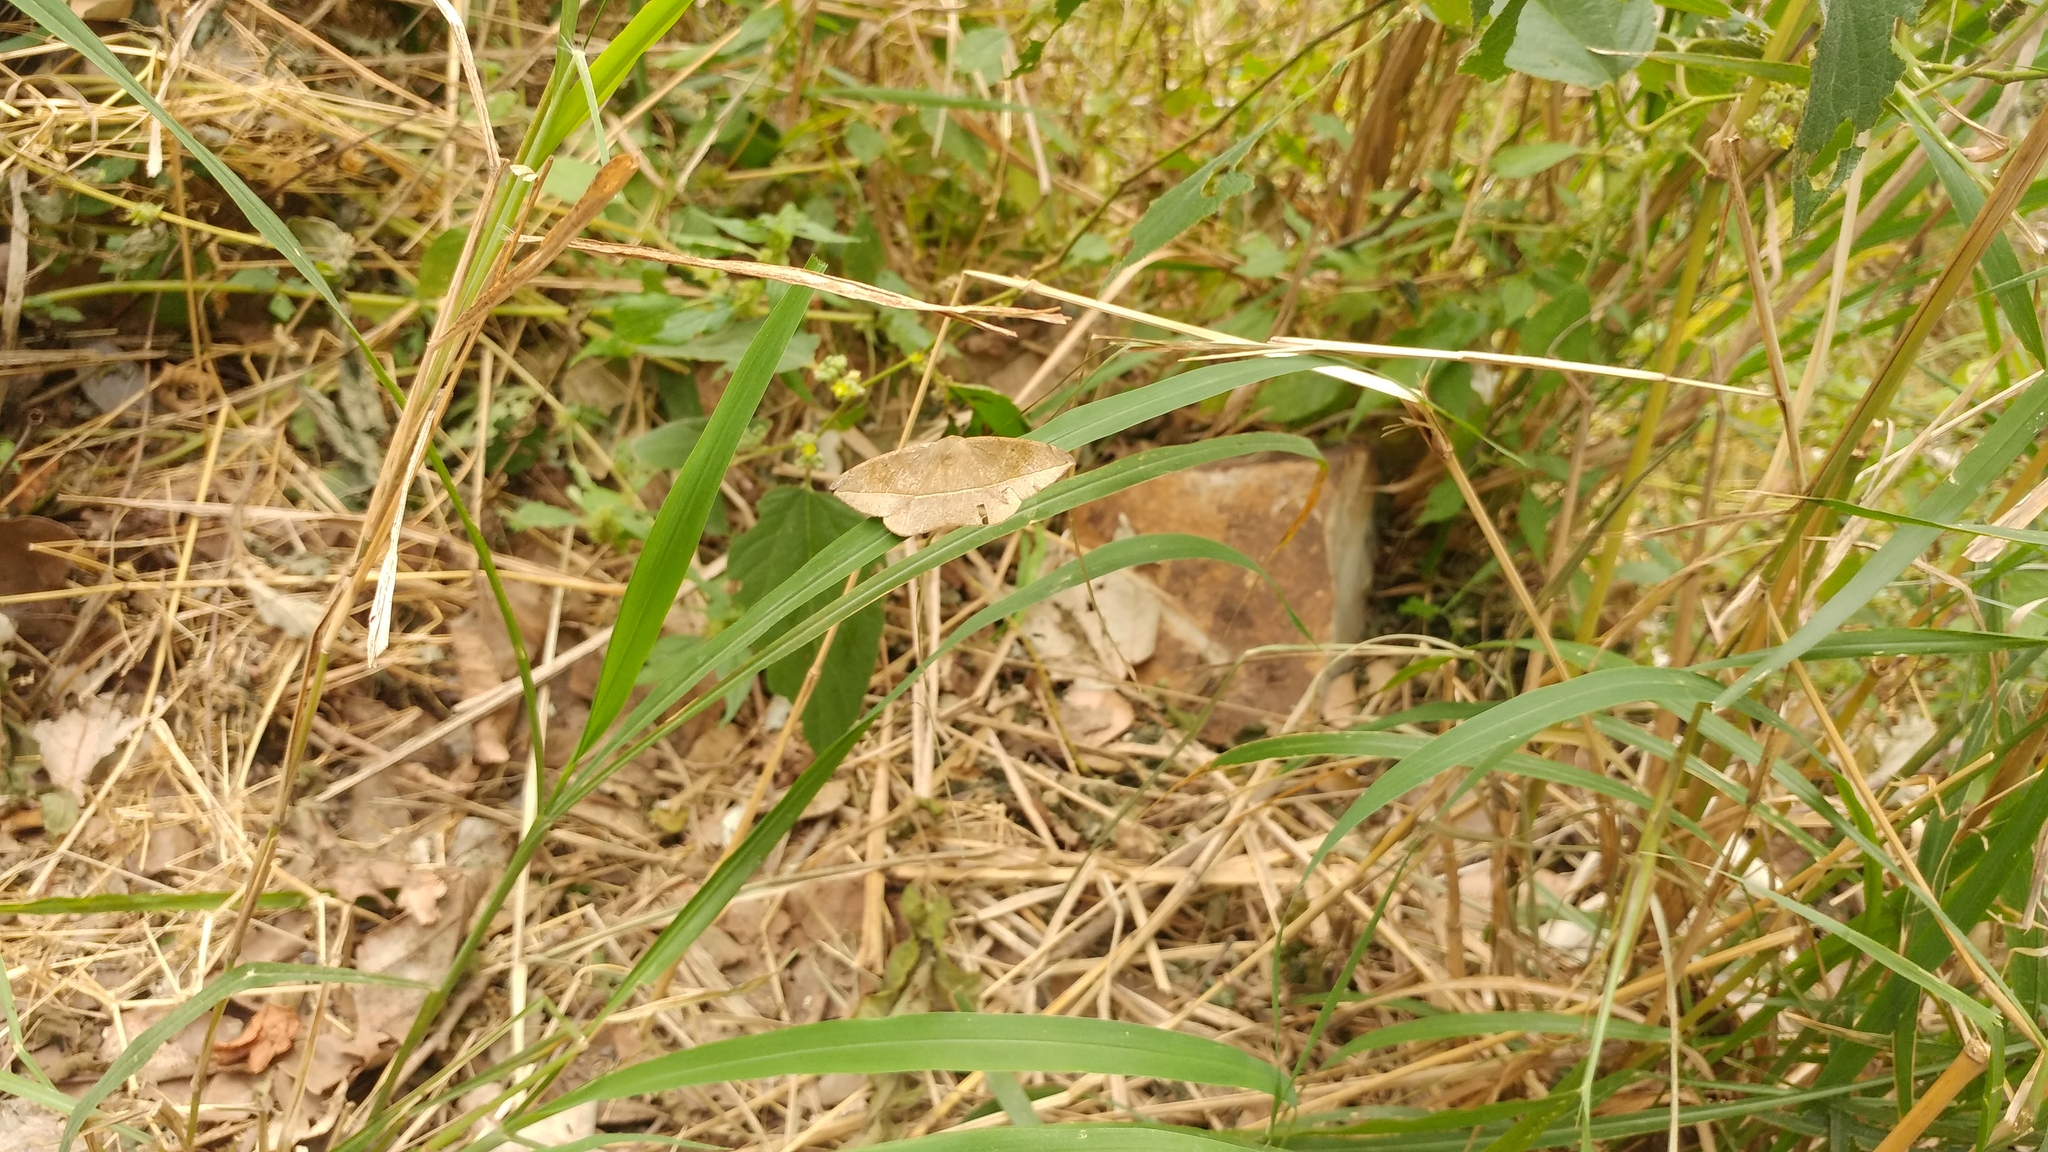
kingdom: Animalia
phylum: Arthropoda
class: Insecta
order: Lepidoptera
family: Geometridae
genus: Eusarca
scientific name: Eusarca confusaria
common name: Confused eusarca
